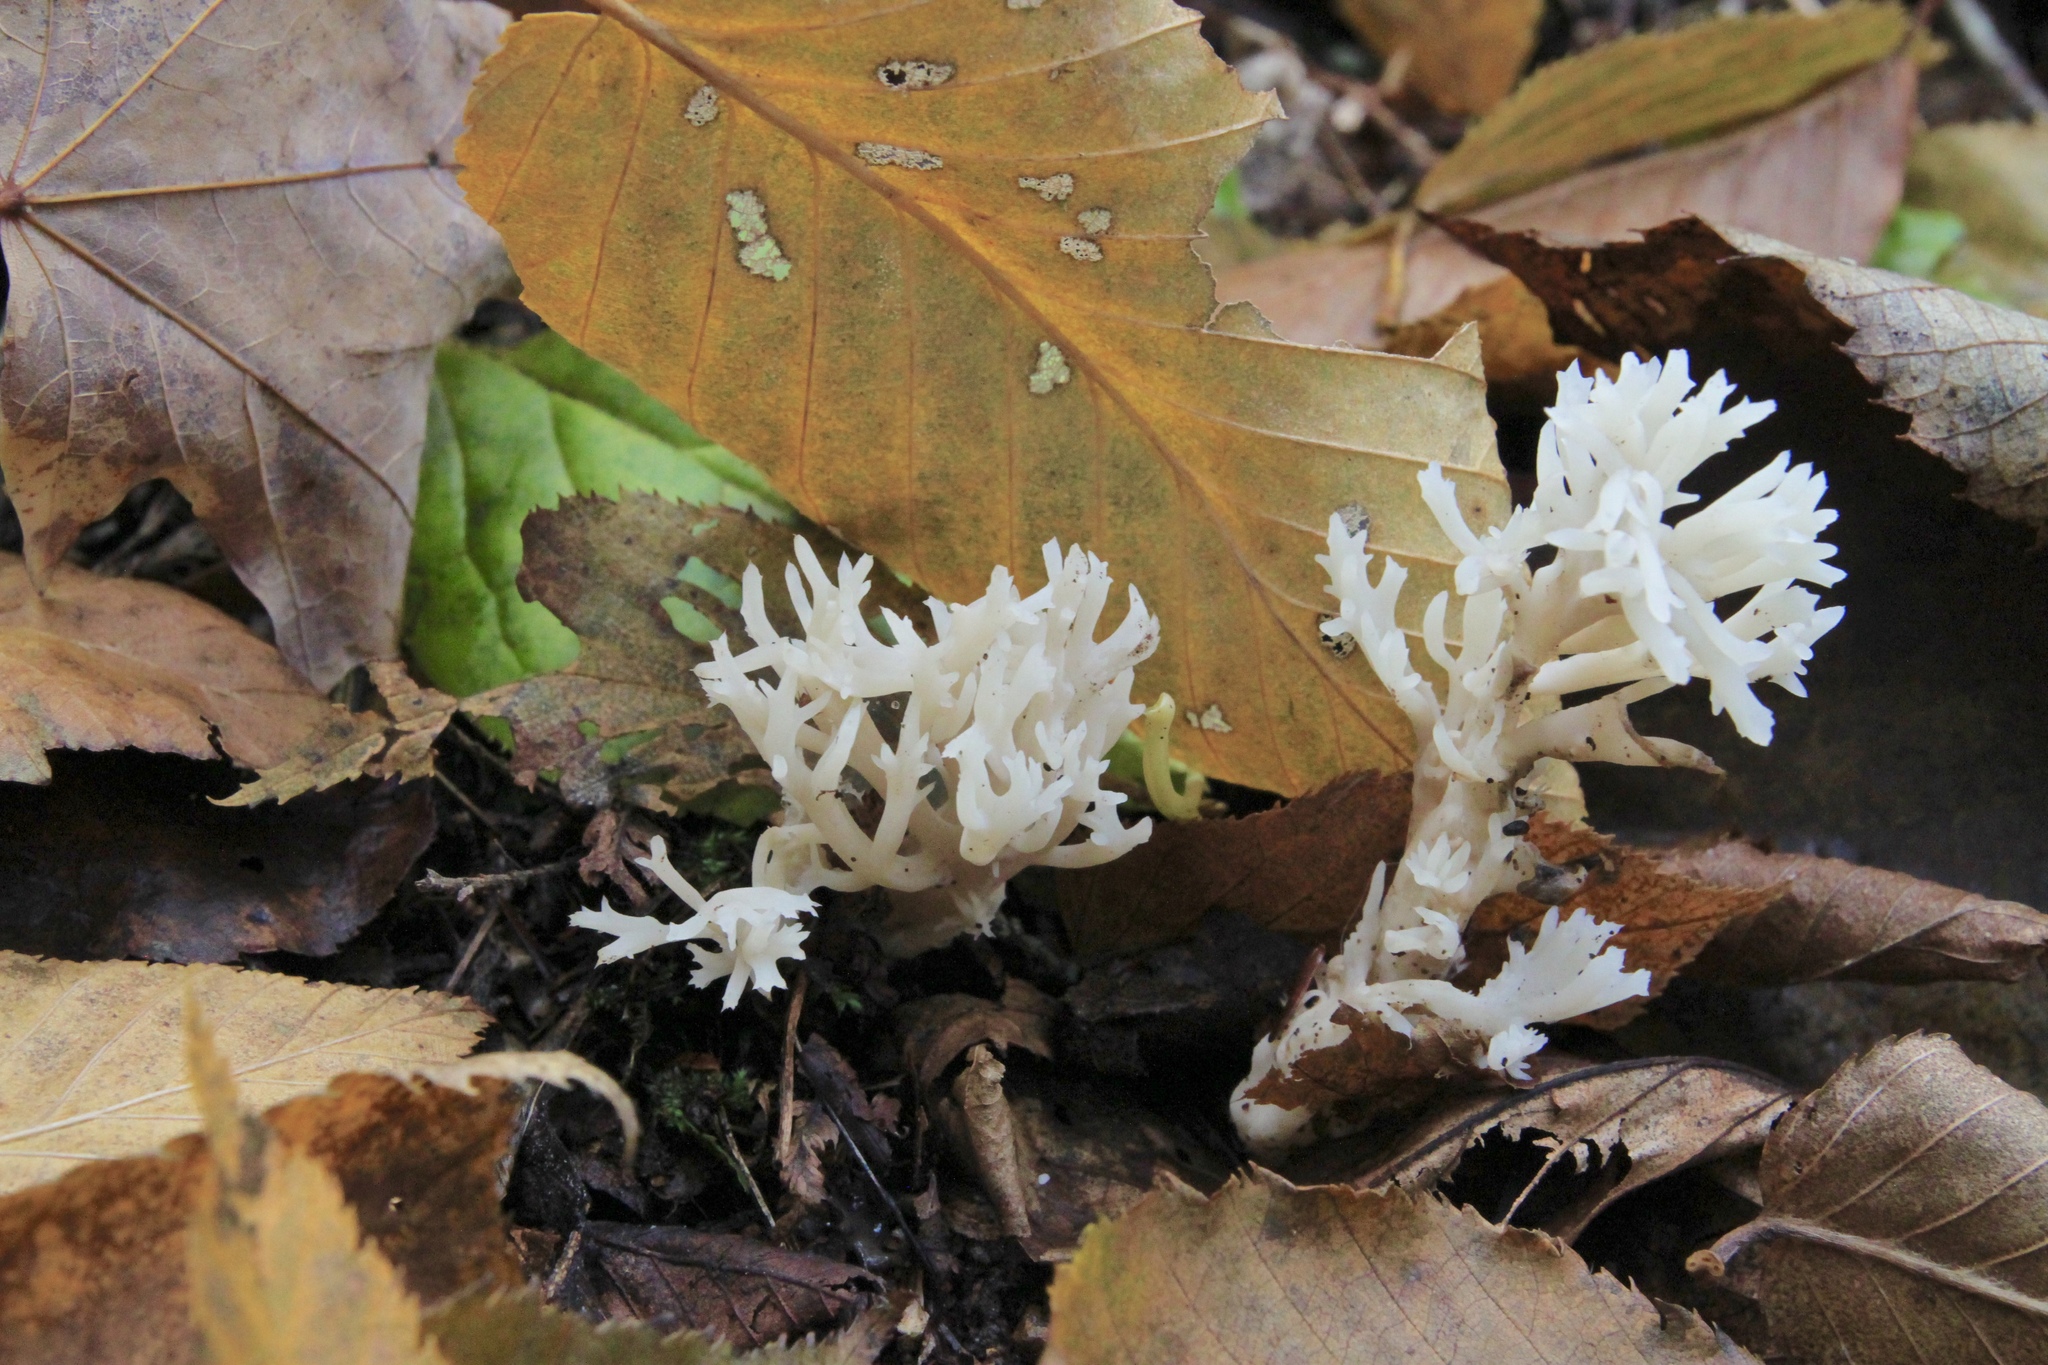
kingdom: Fungi
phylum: Basidiomycota
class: Agaricomycetes
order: Cantharellales
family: Hydnaceae
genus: Clavulina
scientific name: Clavulina coralloides
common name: Crested coral
